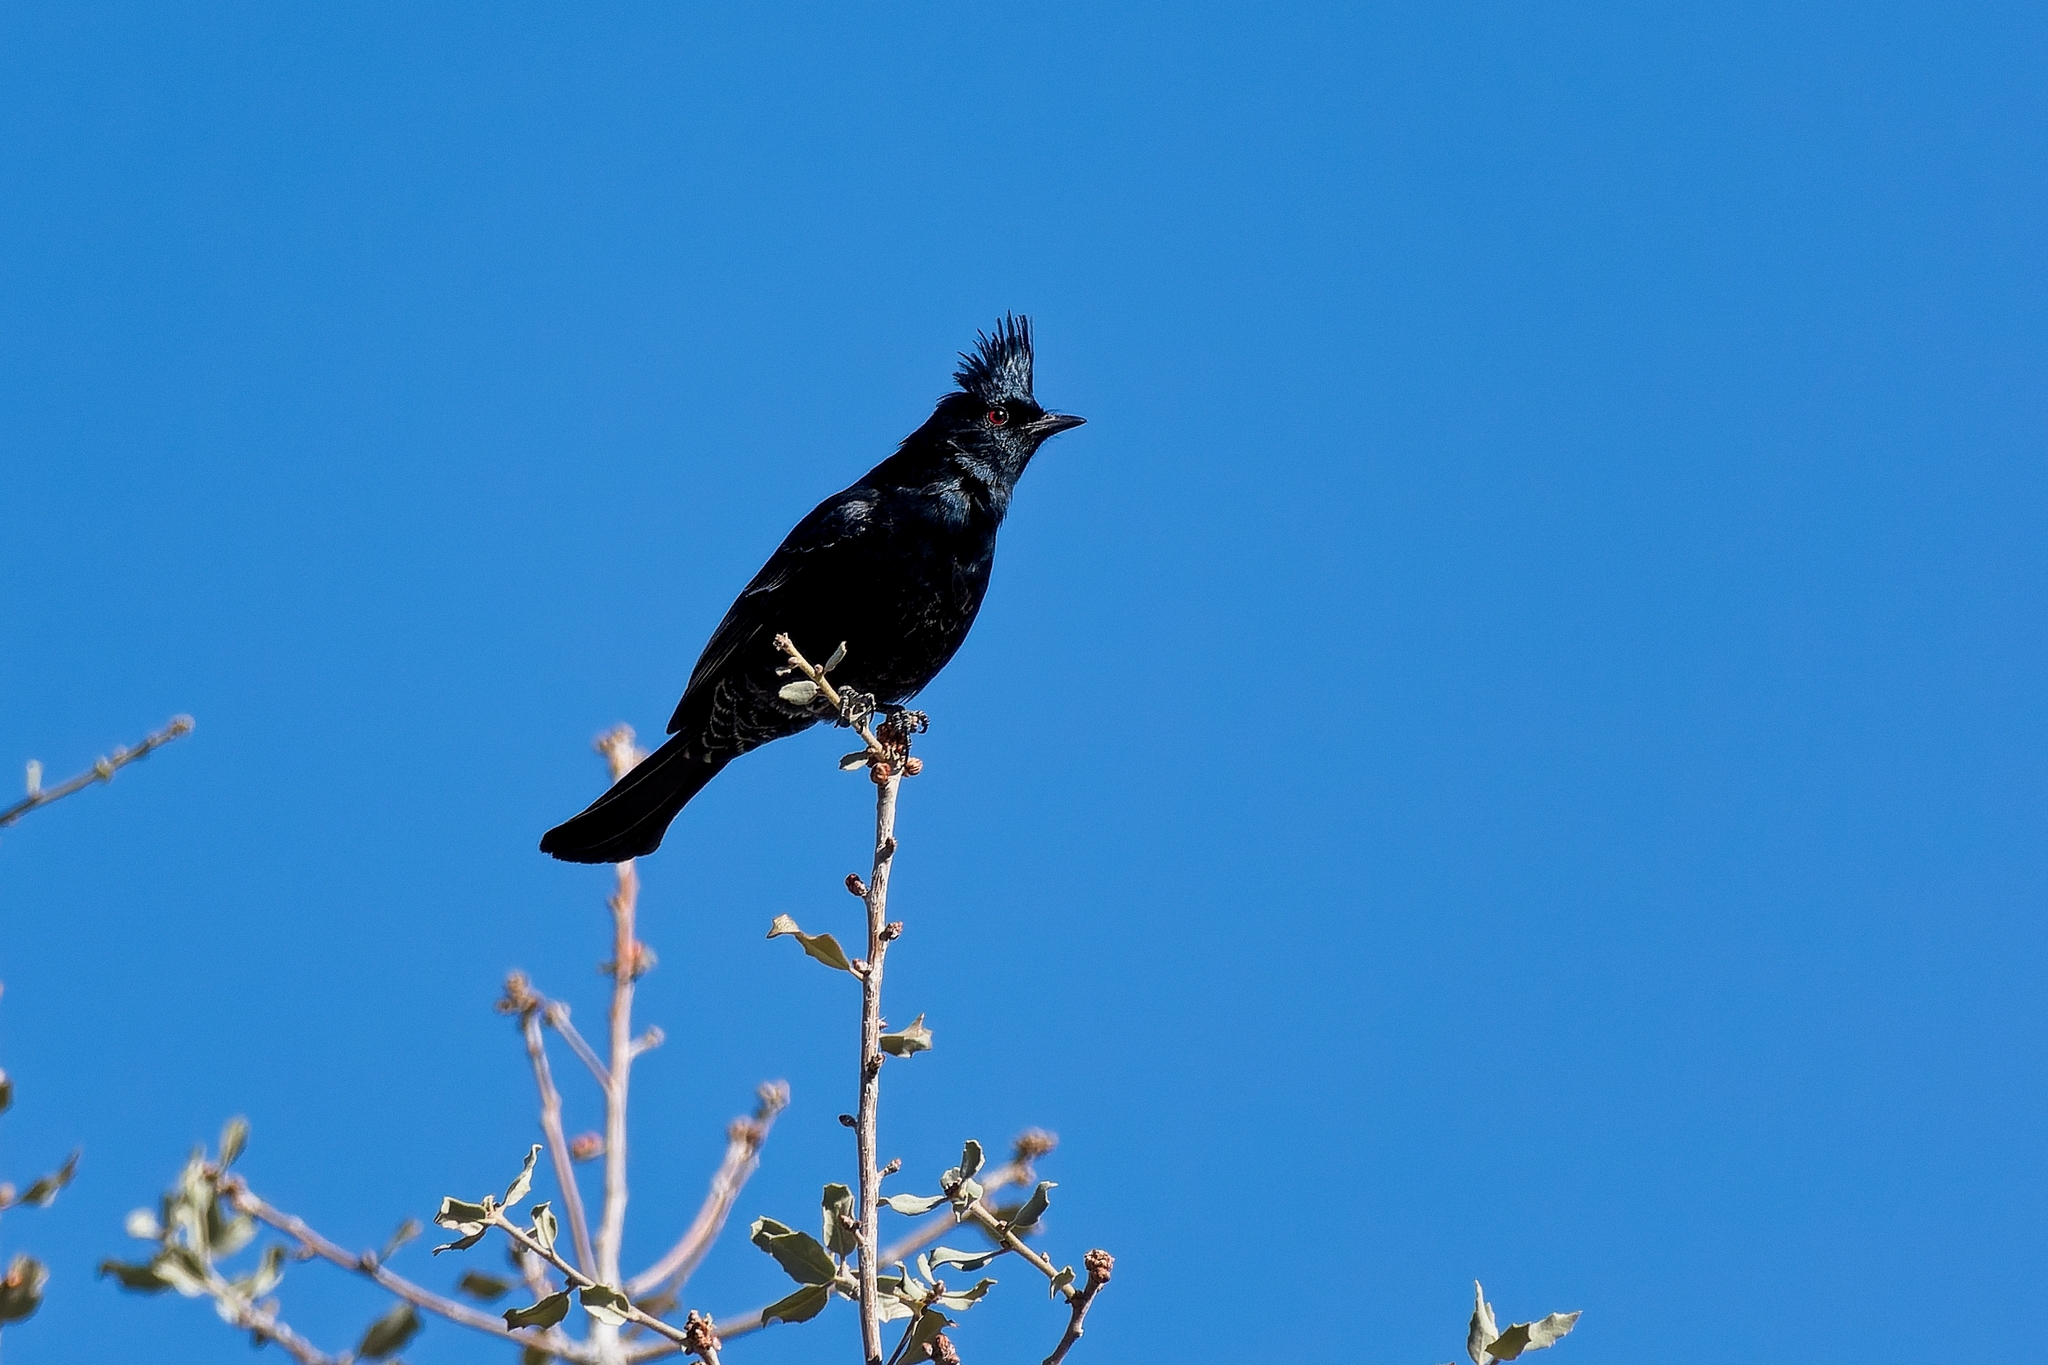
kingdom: Animalia
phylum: Chordata
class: Aves
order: Passeriformes
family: Ptilogonatidae
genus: Phainopepla
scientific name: Phainopepla nitens
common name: Phainopepla
